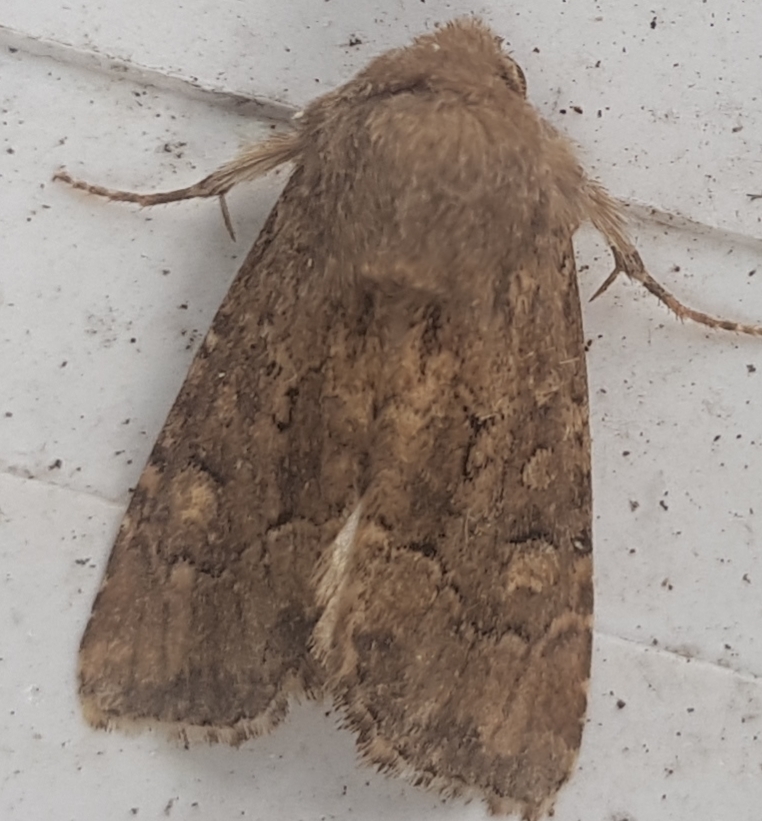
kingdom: Animalia
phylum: Arthropoda
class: Insecta
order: Lepidoptera
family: Noctuidae
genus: Luperina
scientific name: Luperina testacea
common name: Flounced rustic
